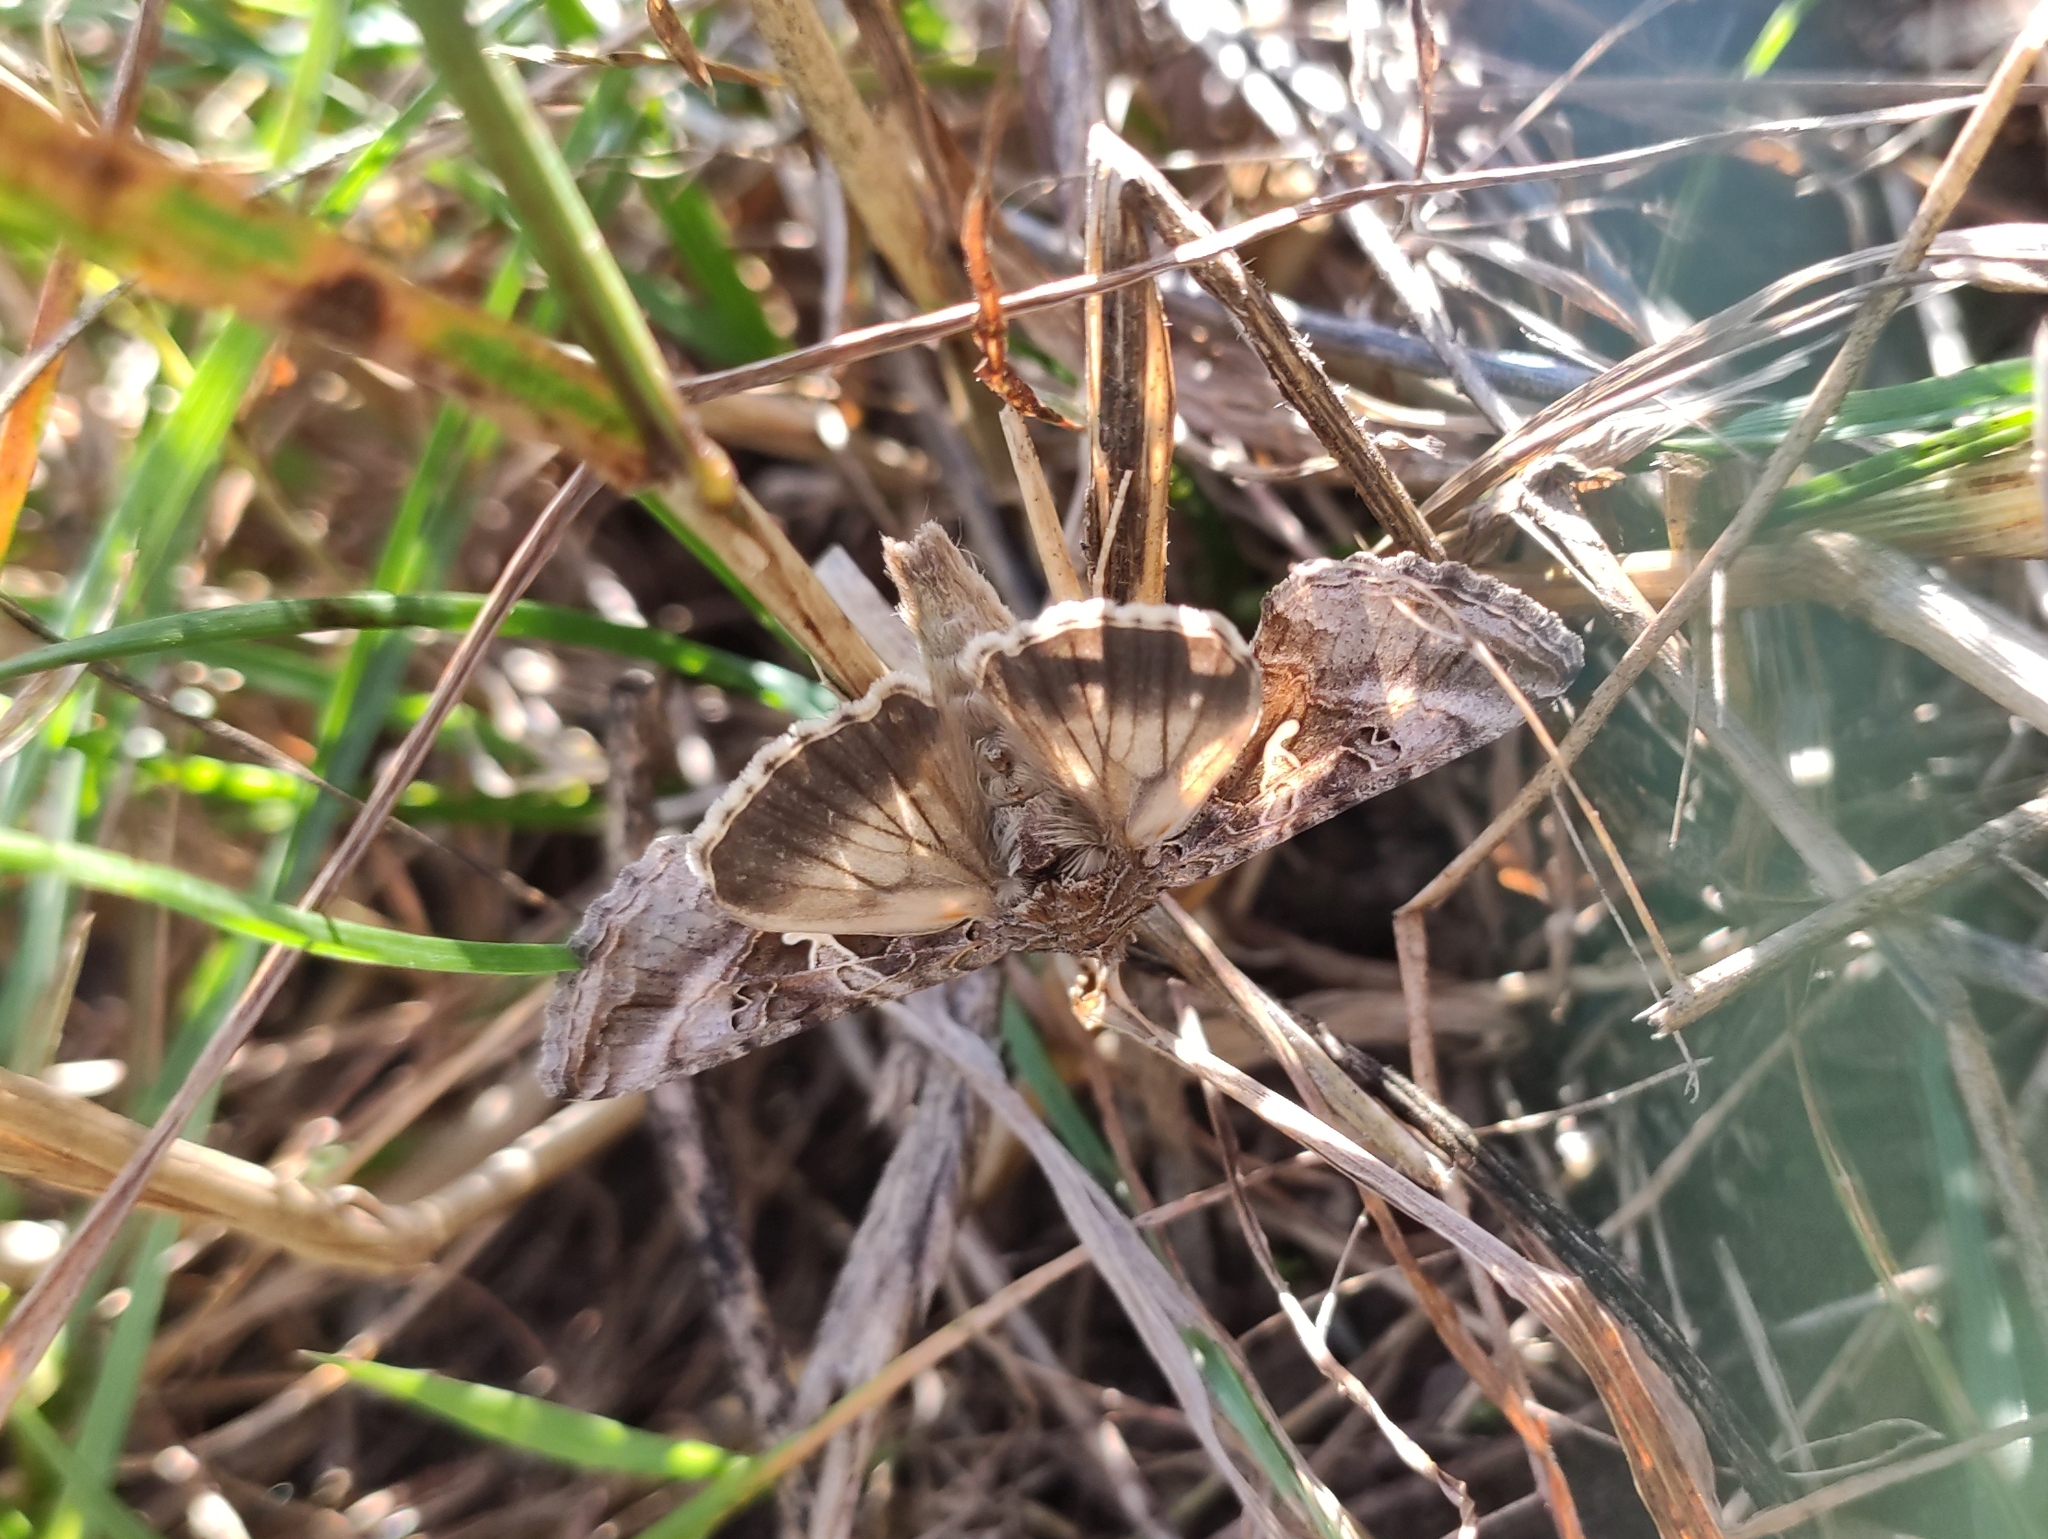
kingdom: Animalia
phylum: Arthropoda
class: Insecta
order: Lepidoptera
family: Noctuidae
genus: Autographa
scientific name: Autographa gamma
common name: Silver y
